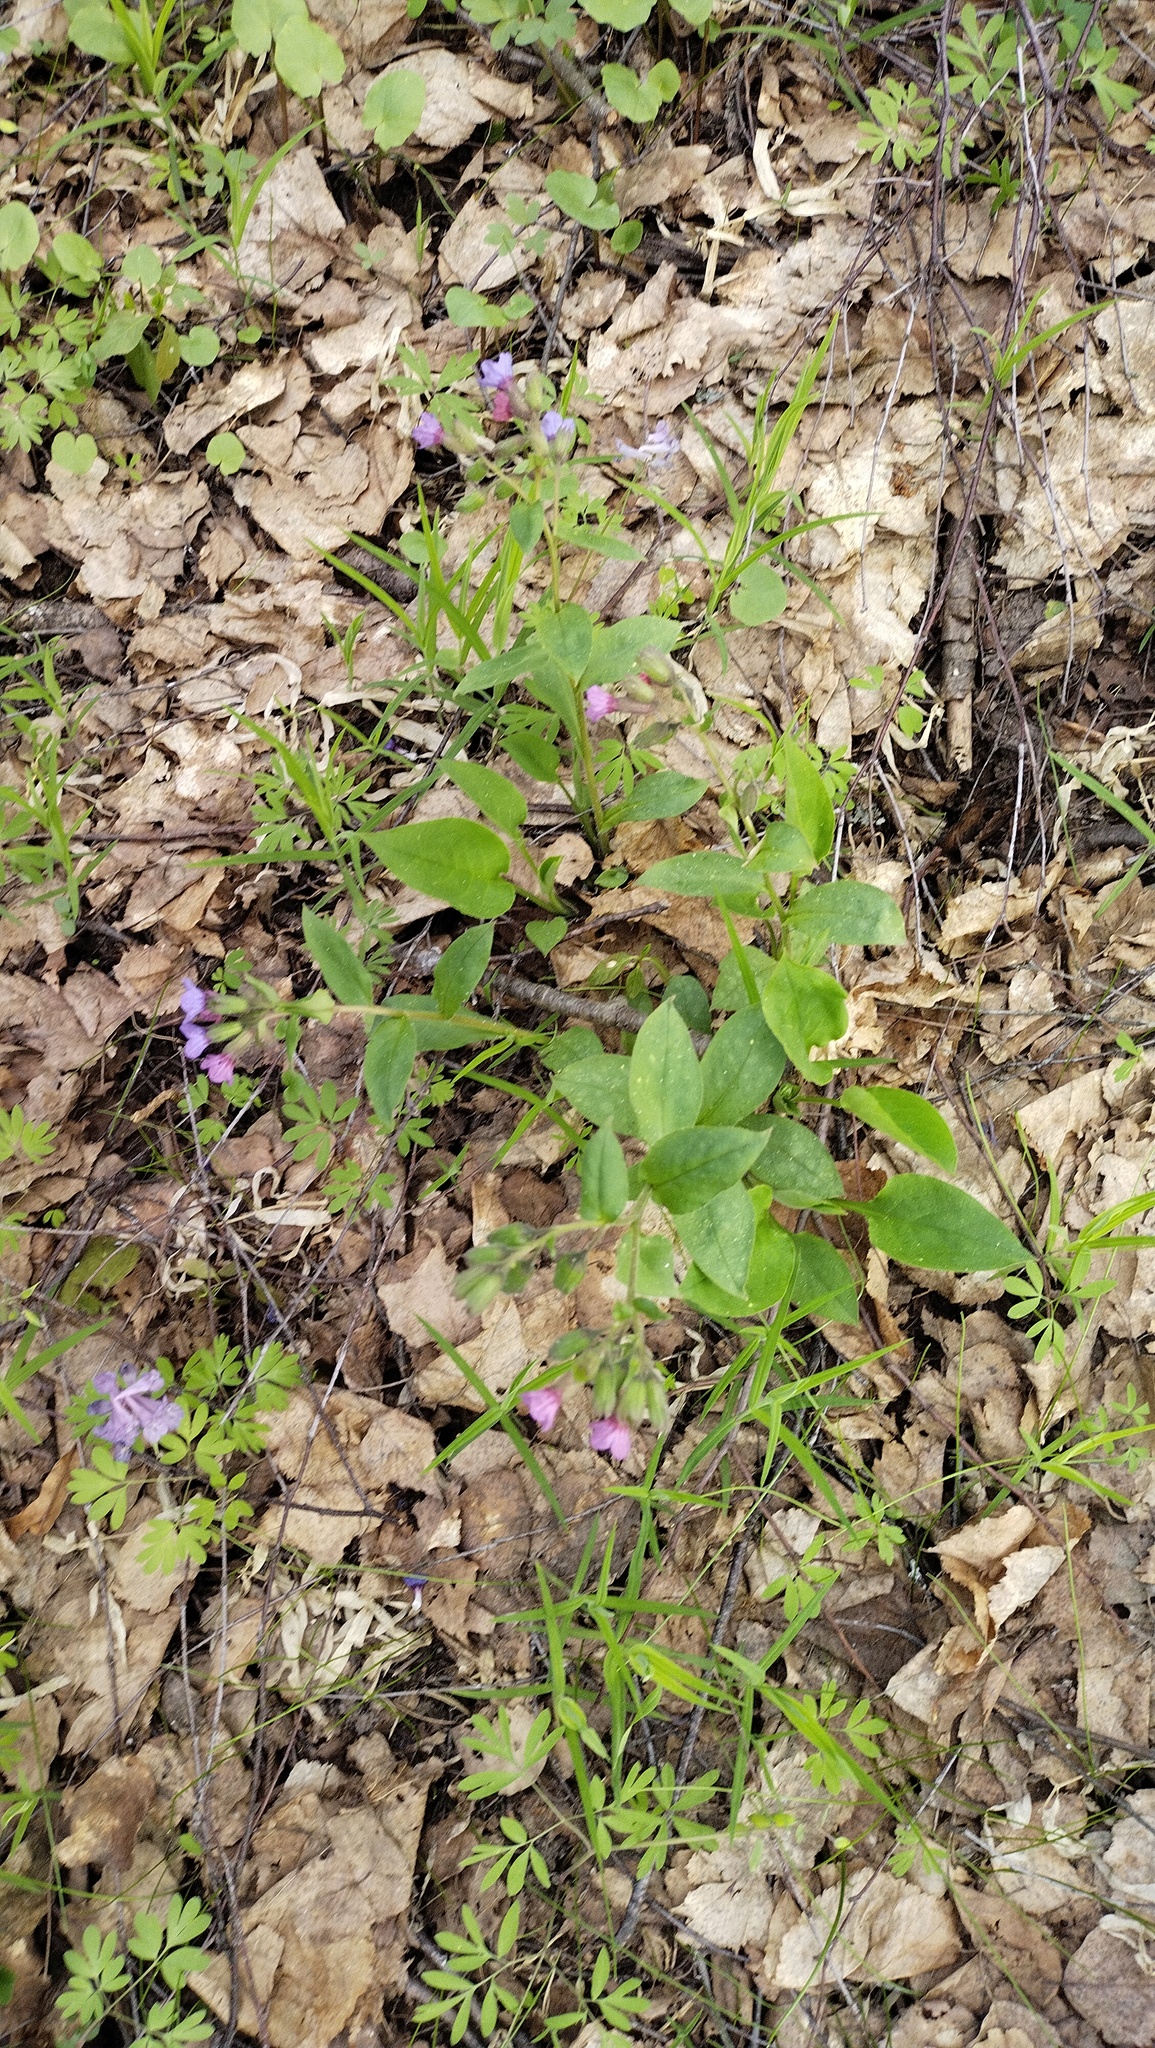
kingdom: Plantae
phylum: Tracheophyta
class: Magnoliopsida
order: Boraginales
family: Boraginaceae
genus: Pulmonaria
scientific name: Pulmonaria obscura
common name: Suffolk lungwort
